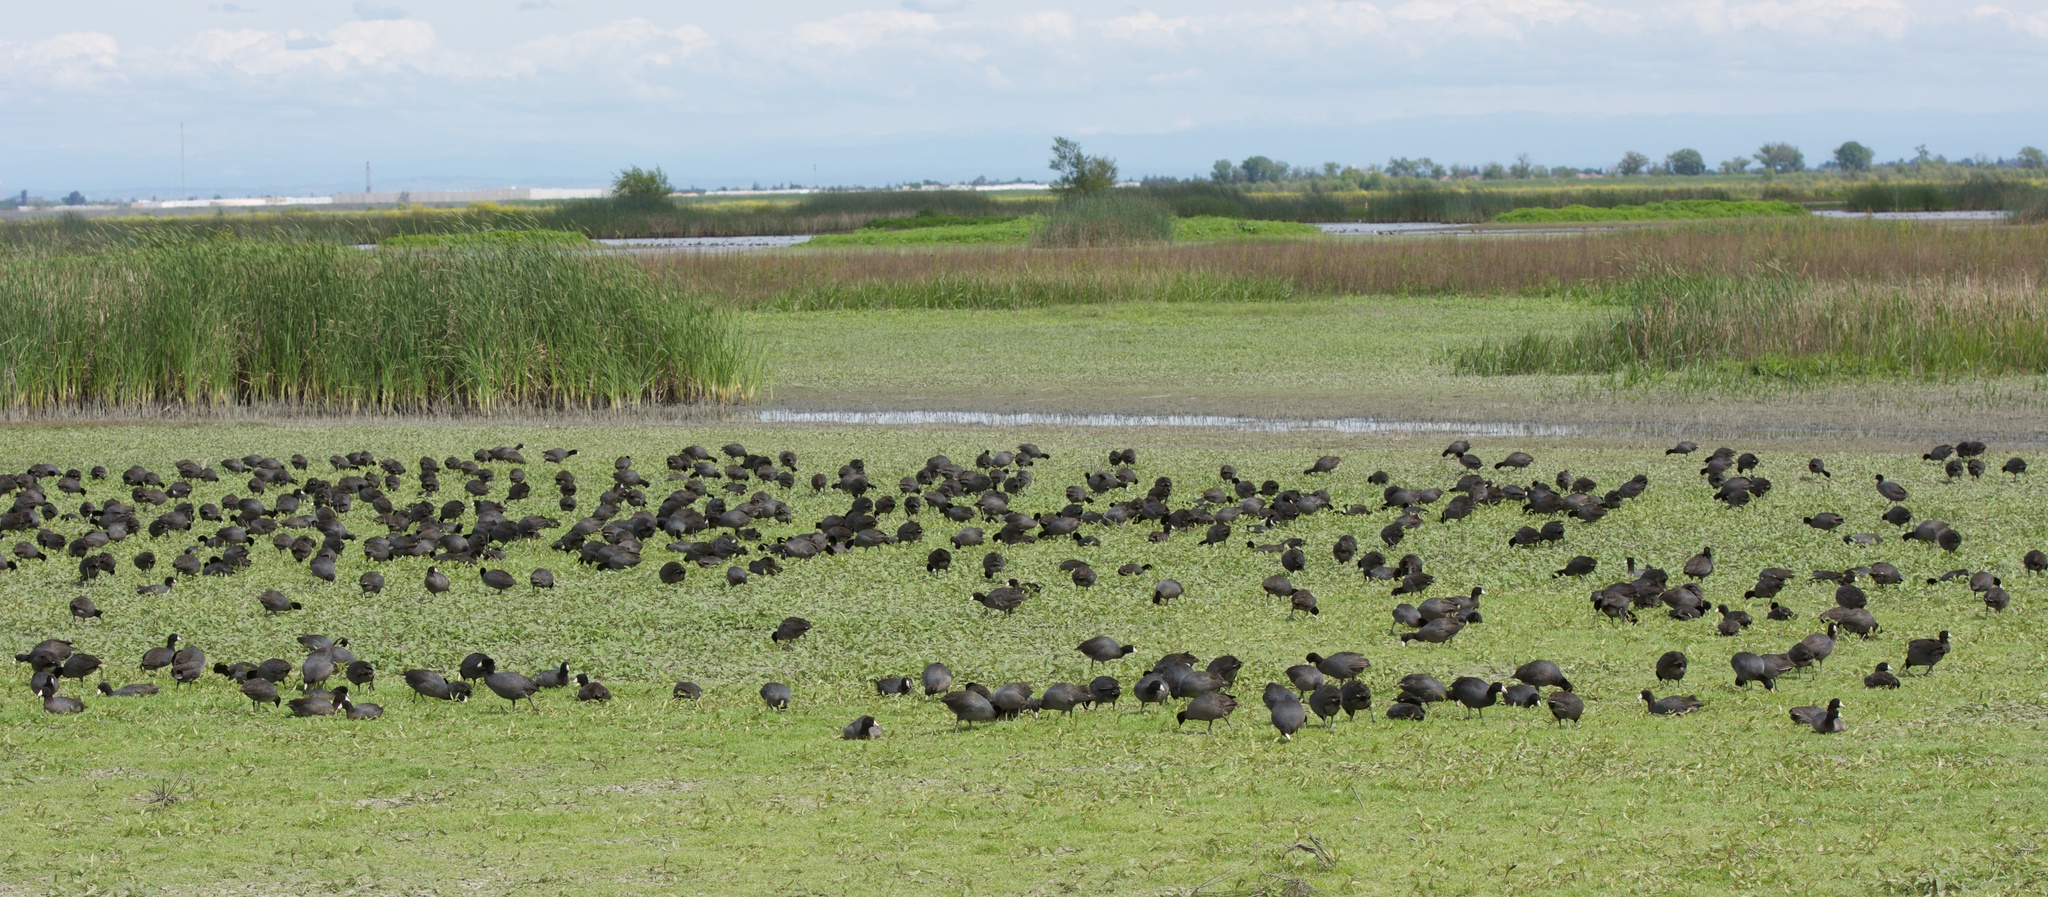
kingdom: Animalia
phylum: Chordata
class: Aves
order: Gruiformes
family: Rallidae
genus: Fulica
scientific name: Fulica americana
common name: American coot
